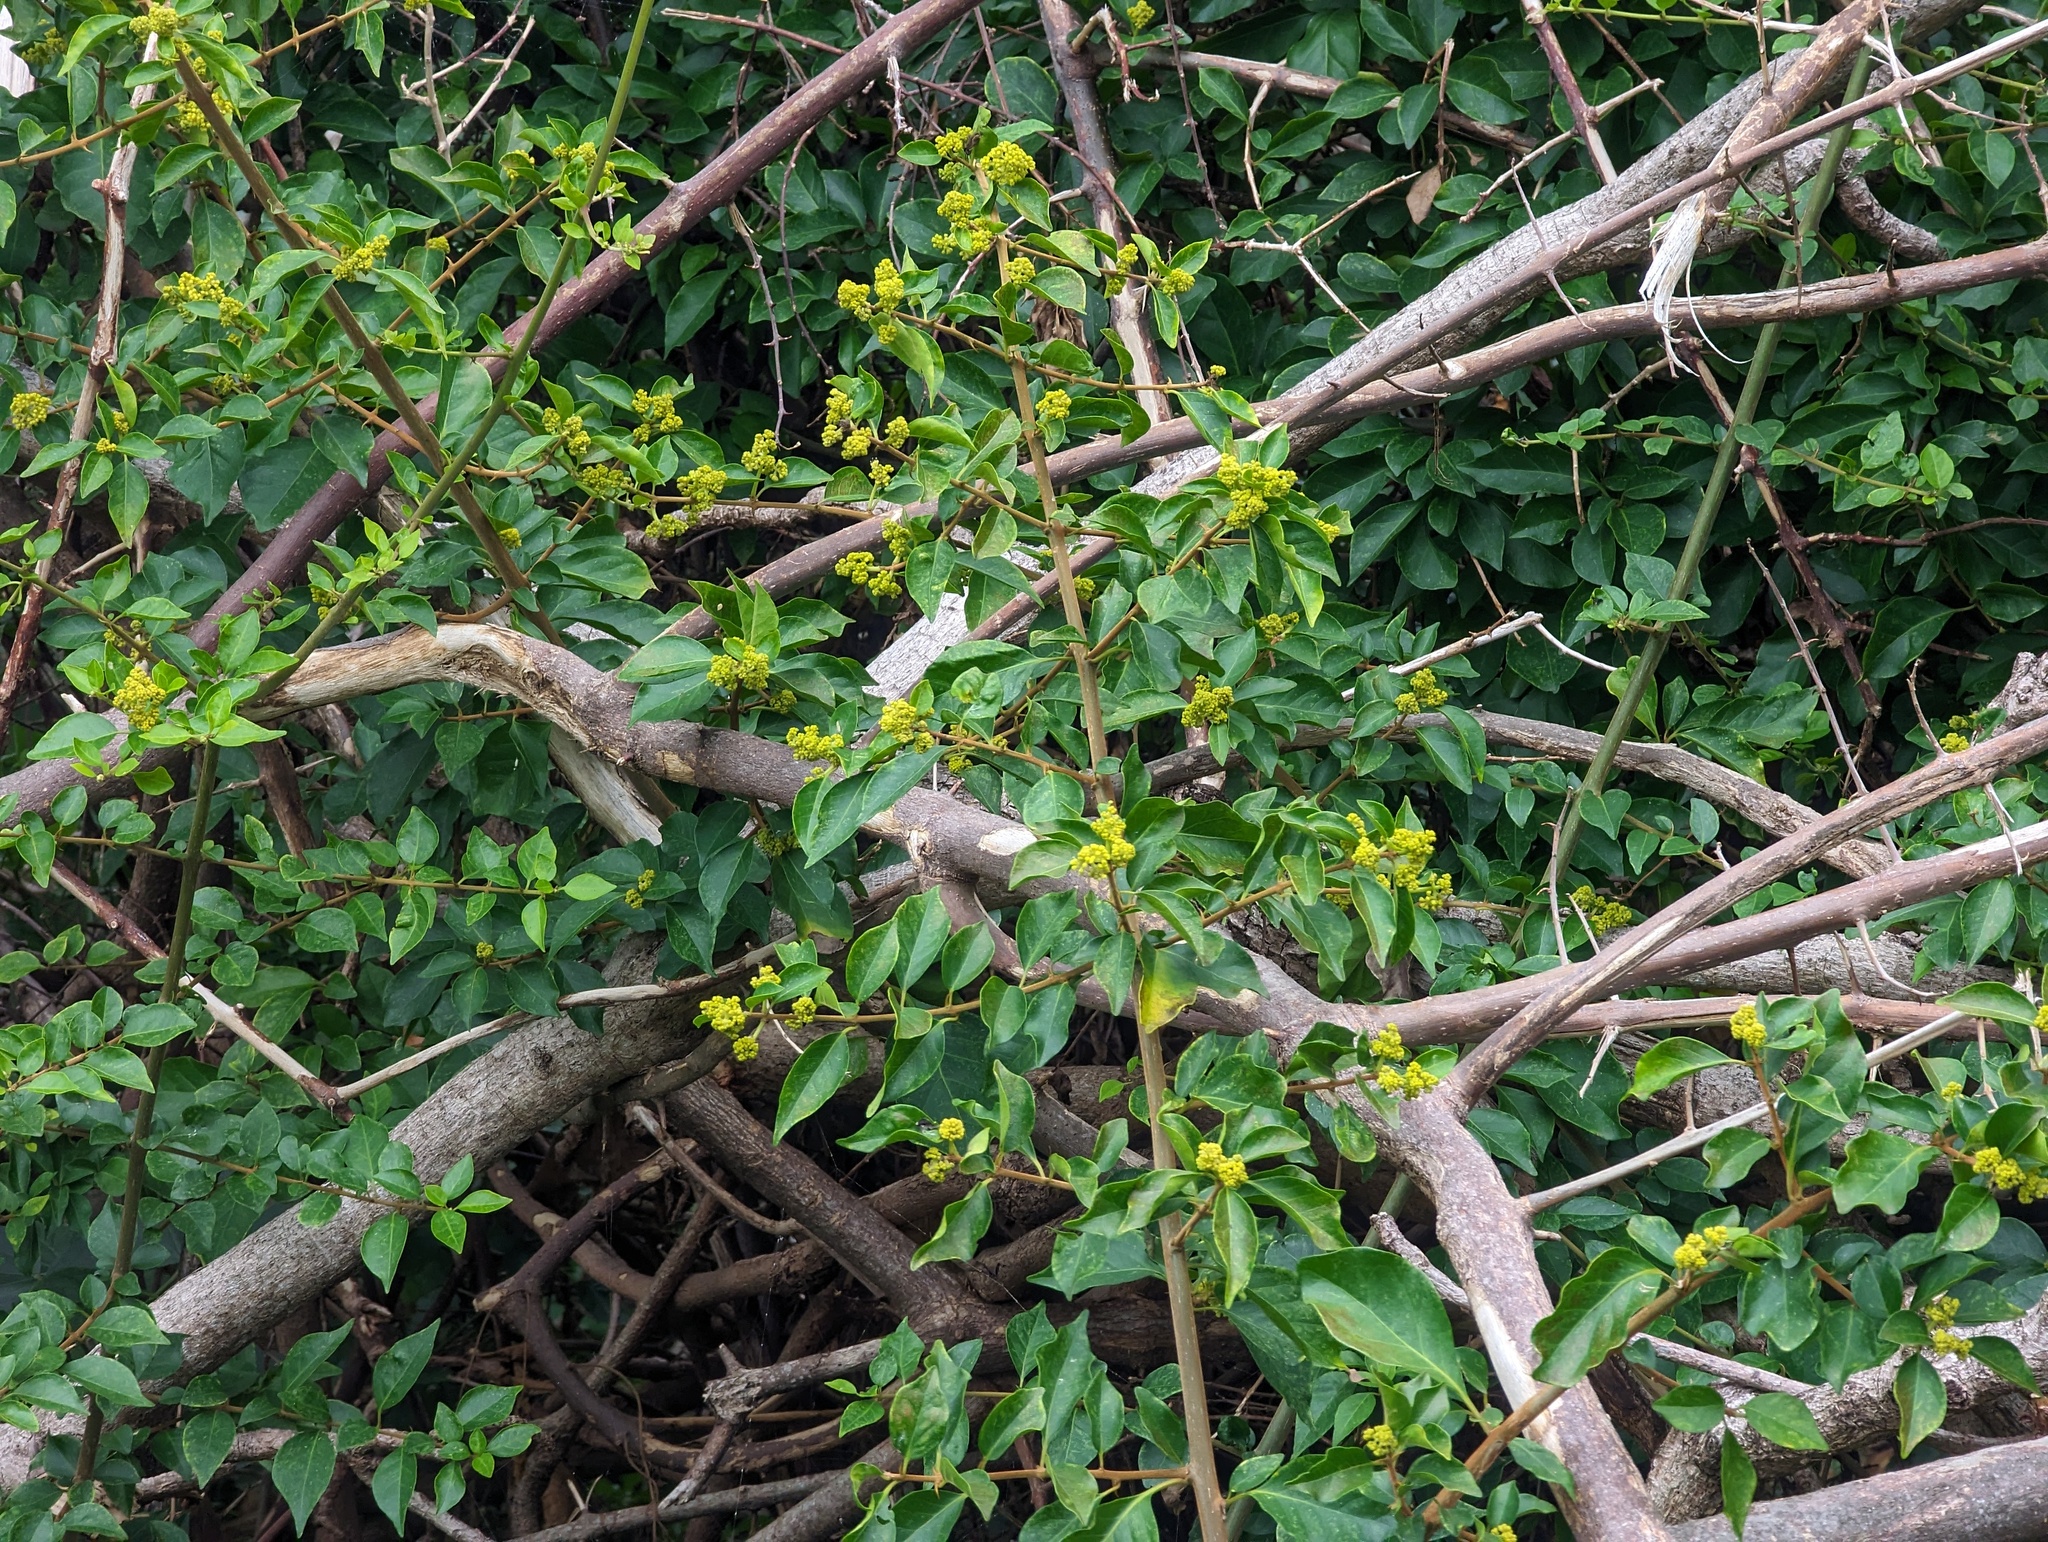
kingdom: Plantae
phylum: Tracheophyta
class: Magnoliopsida
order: Caryophyllales
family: Nyctaginaceae
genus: Pisonia
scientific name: Pisonia aculeata
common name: Cockspur vine
